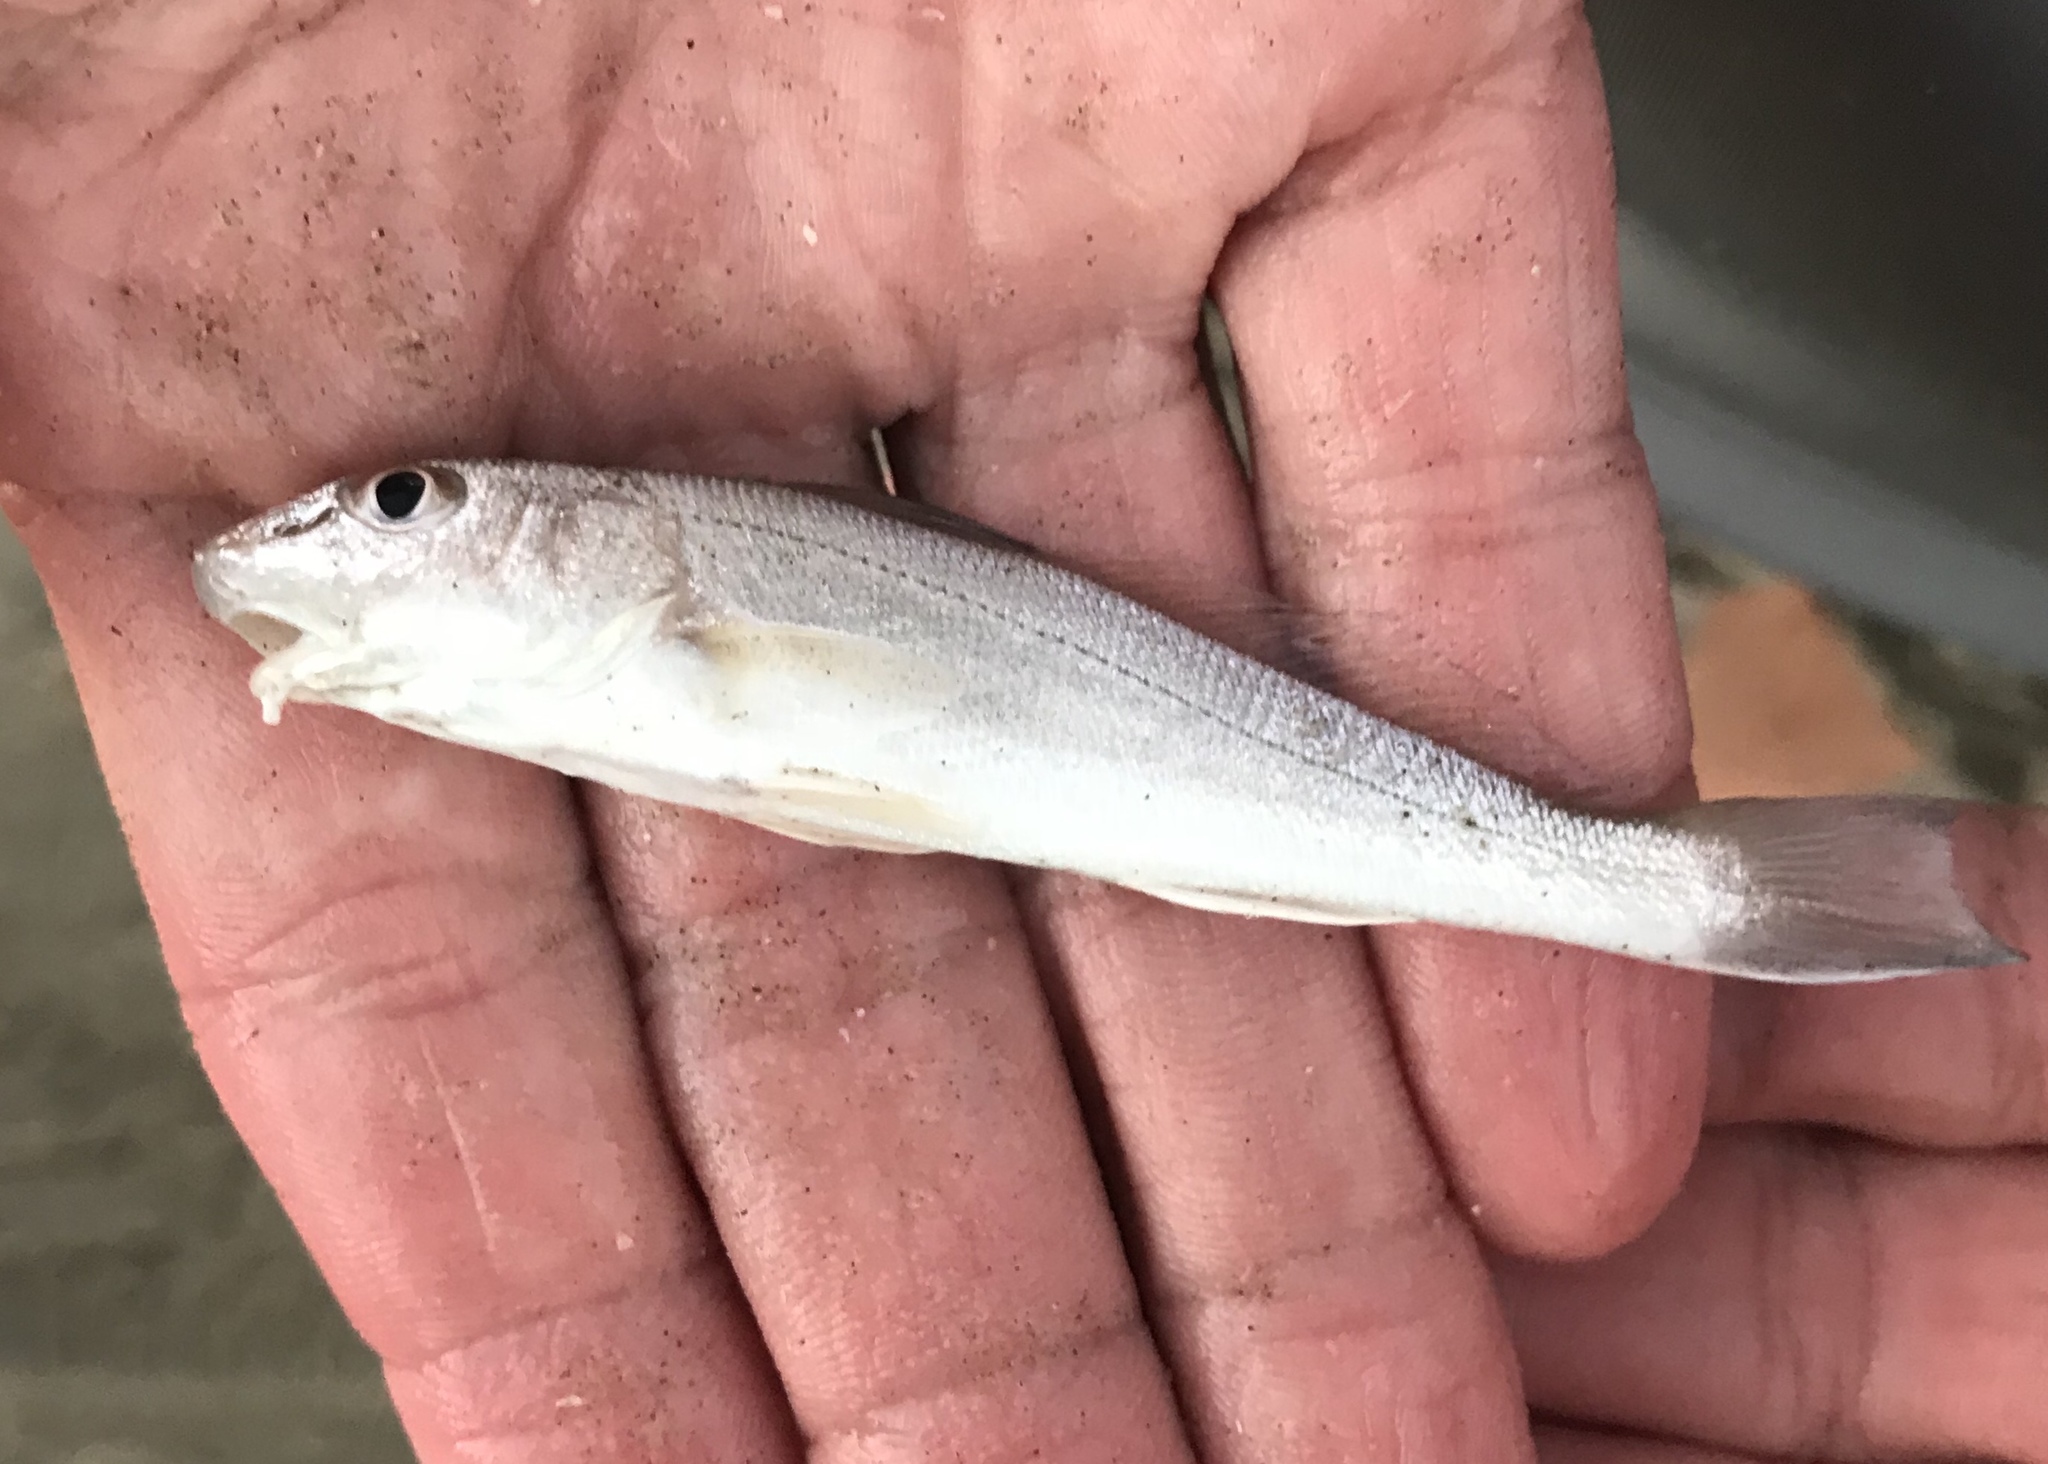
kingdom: Animalia
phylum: Chordata
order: Perciformes
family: Sciaenidae
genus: Menticirrhus
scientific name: Menticirrhus americanus
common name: Southern kingfish
